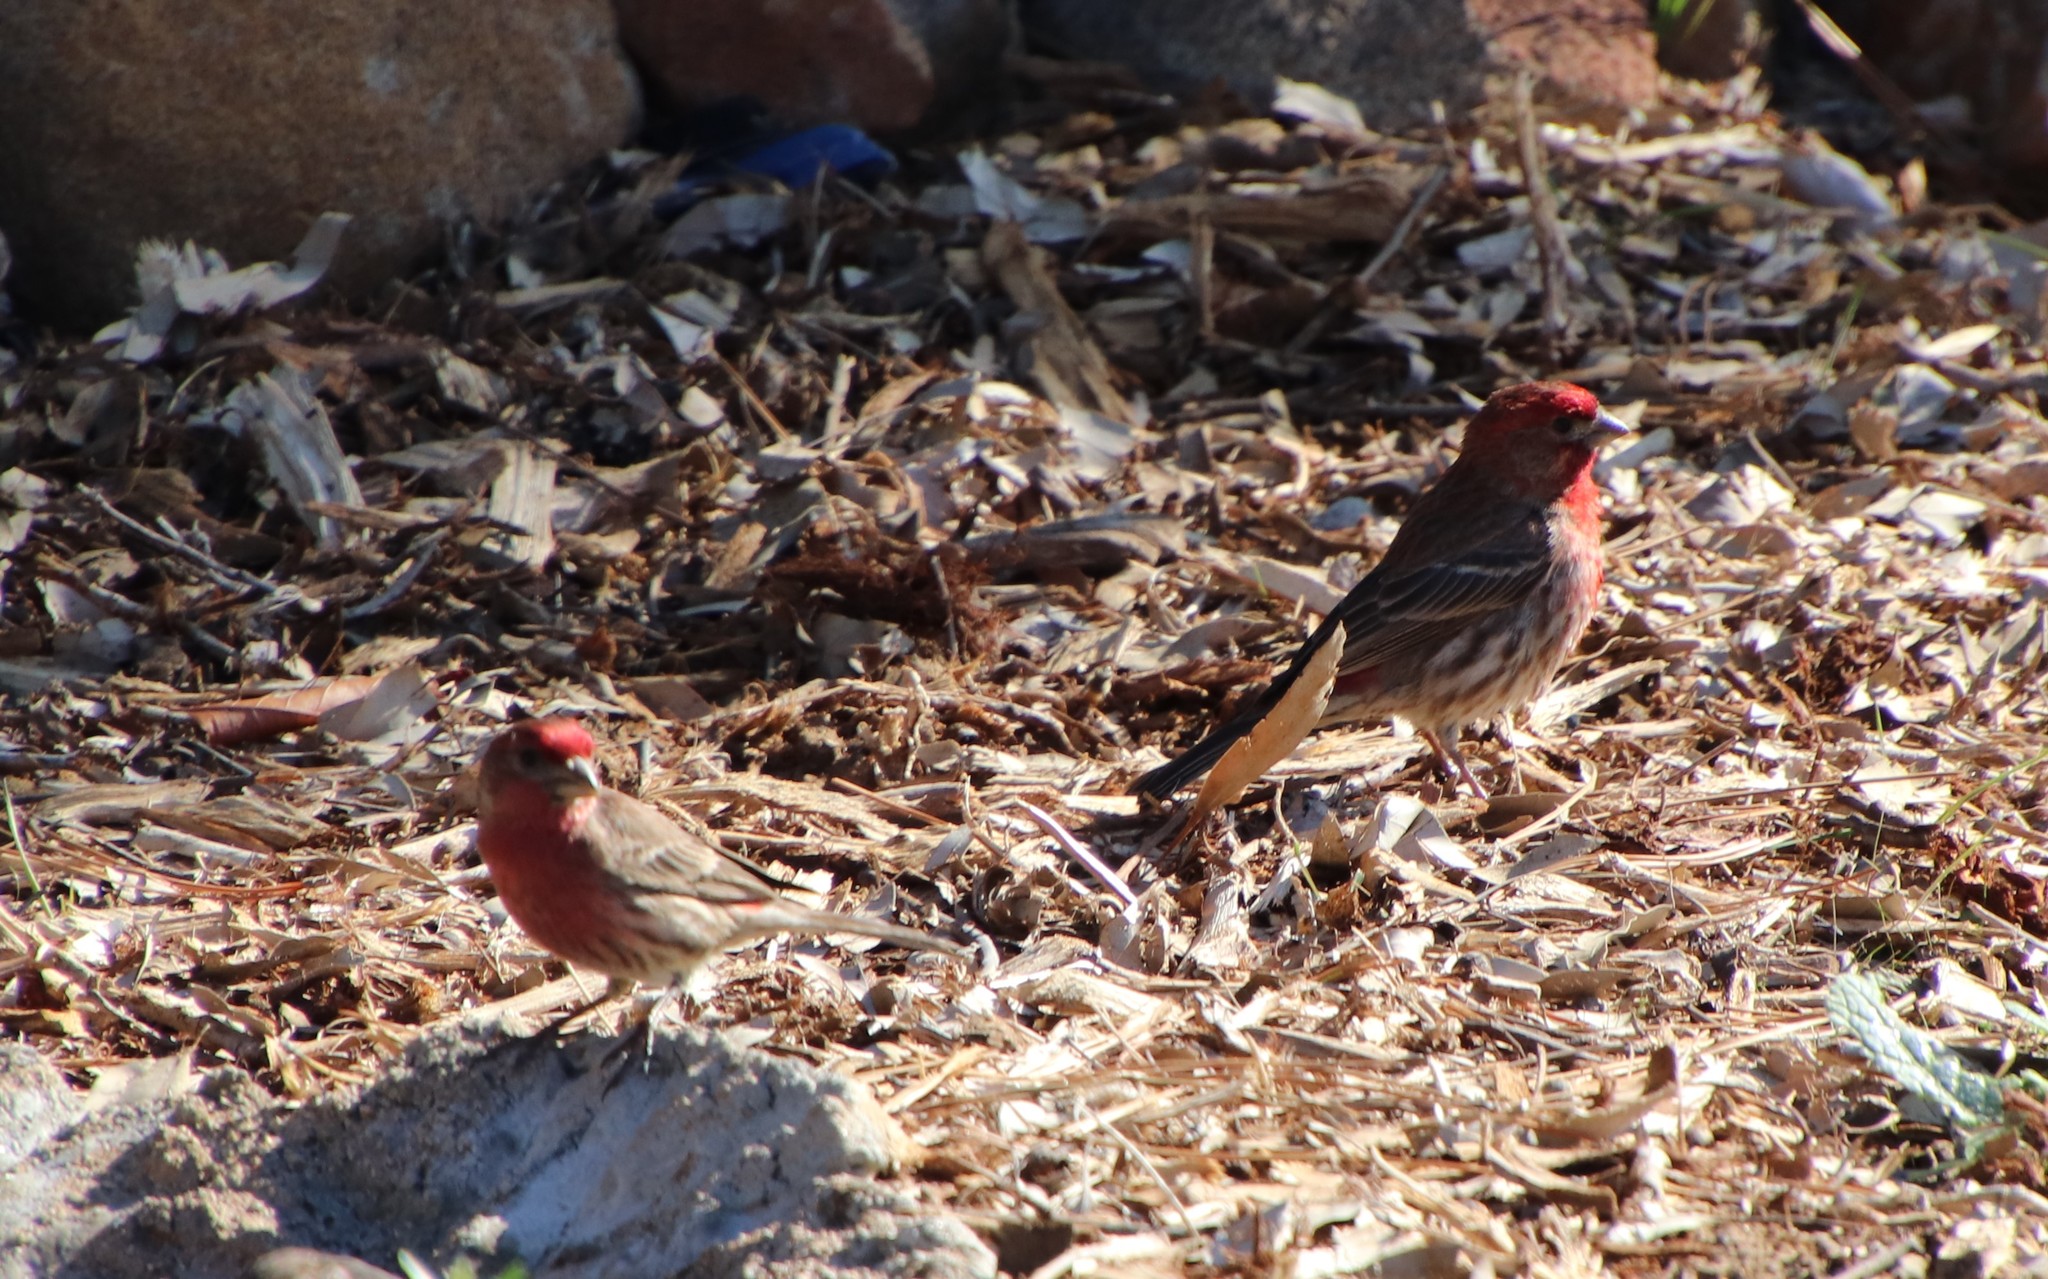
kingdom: Animalia
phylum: Chordata
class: Aves
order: Passeriformes
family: Fringillidae
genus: Haemorhous
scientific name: Haemorhous mexicanus
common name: House finch
